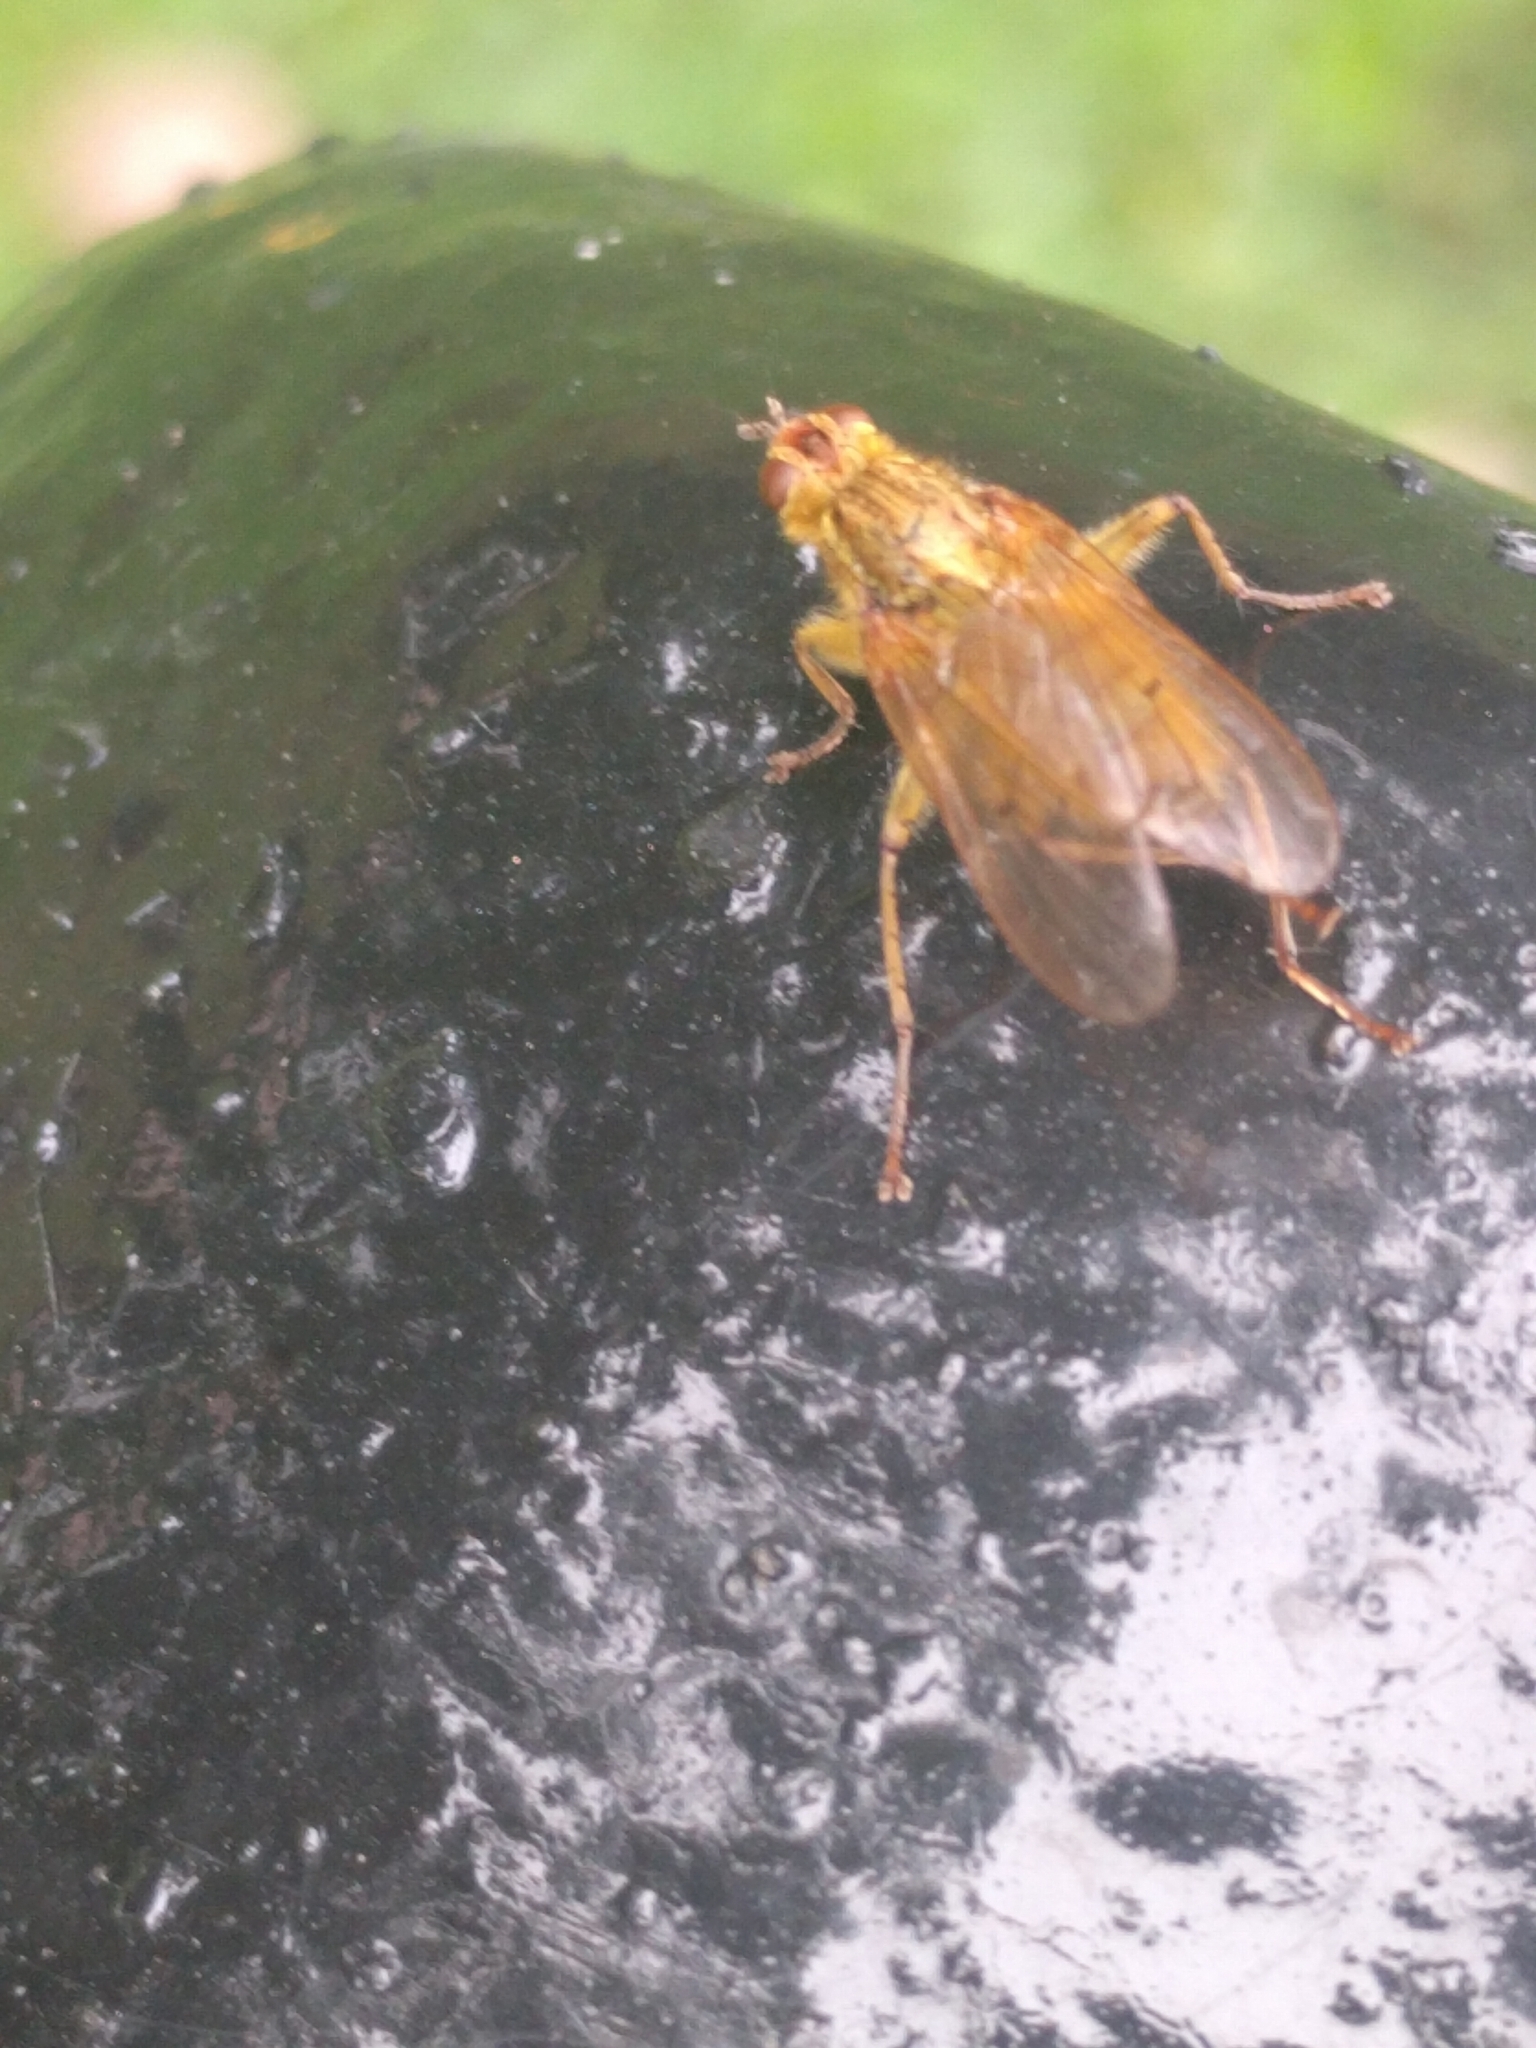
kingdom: Animalia
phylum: Arthropoda
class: Insecta
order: Diptera
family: Scathophagidae
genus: Scathophaga
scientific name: Scathophaga stercoraria
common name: Yellow dung fly
